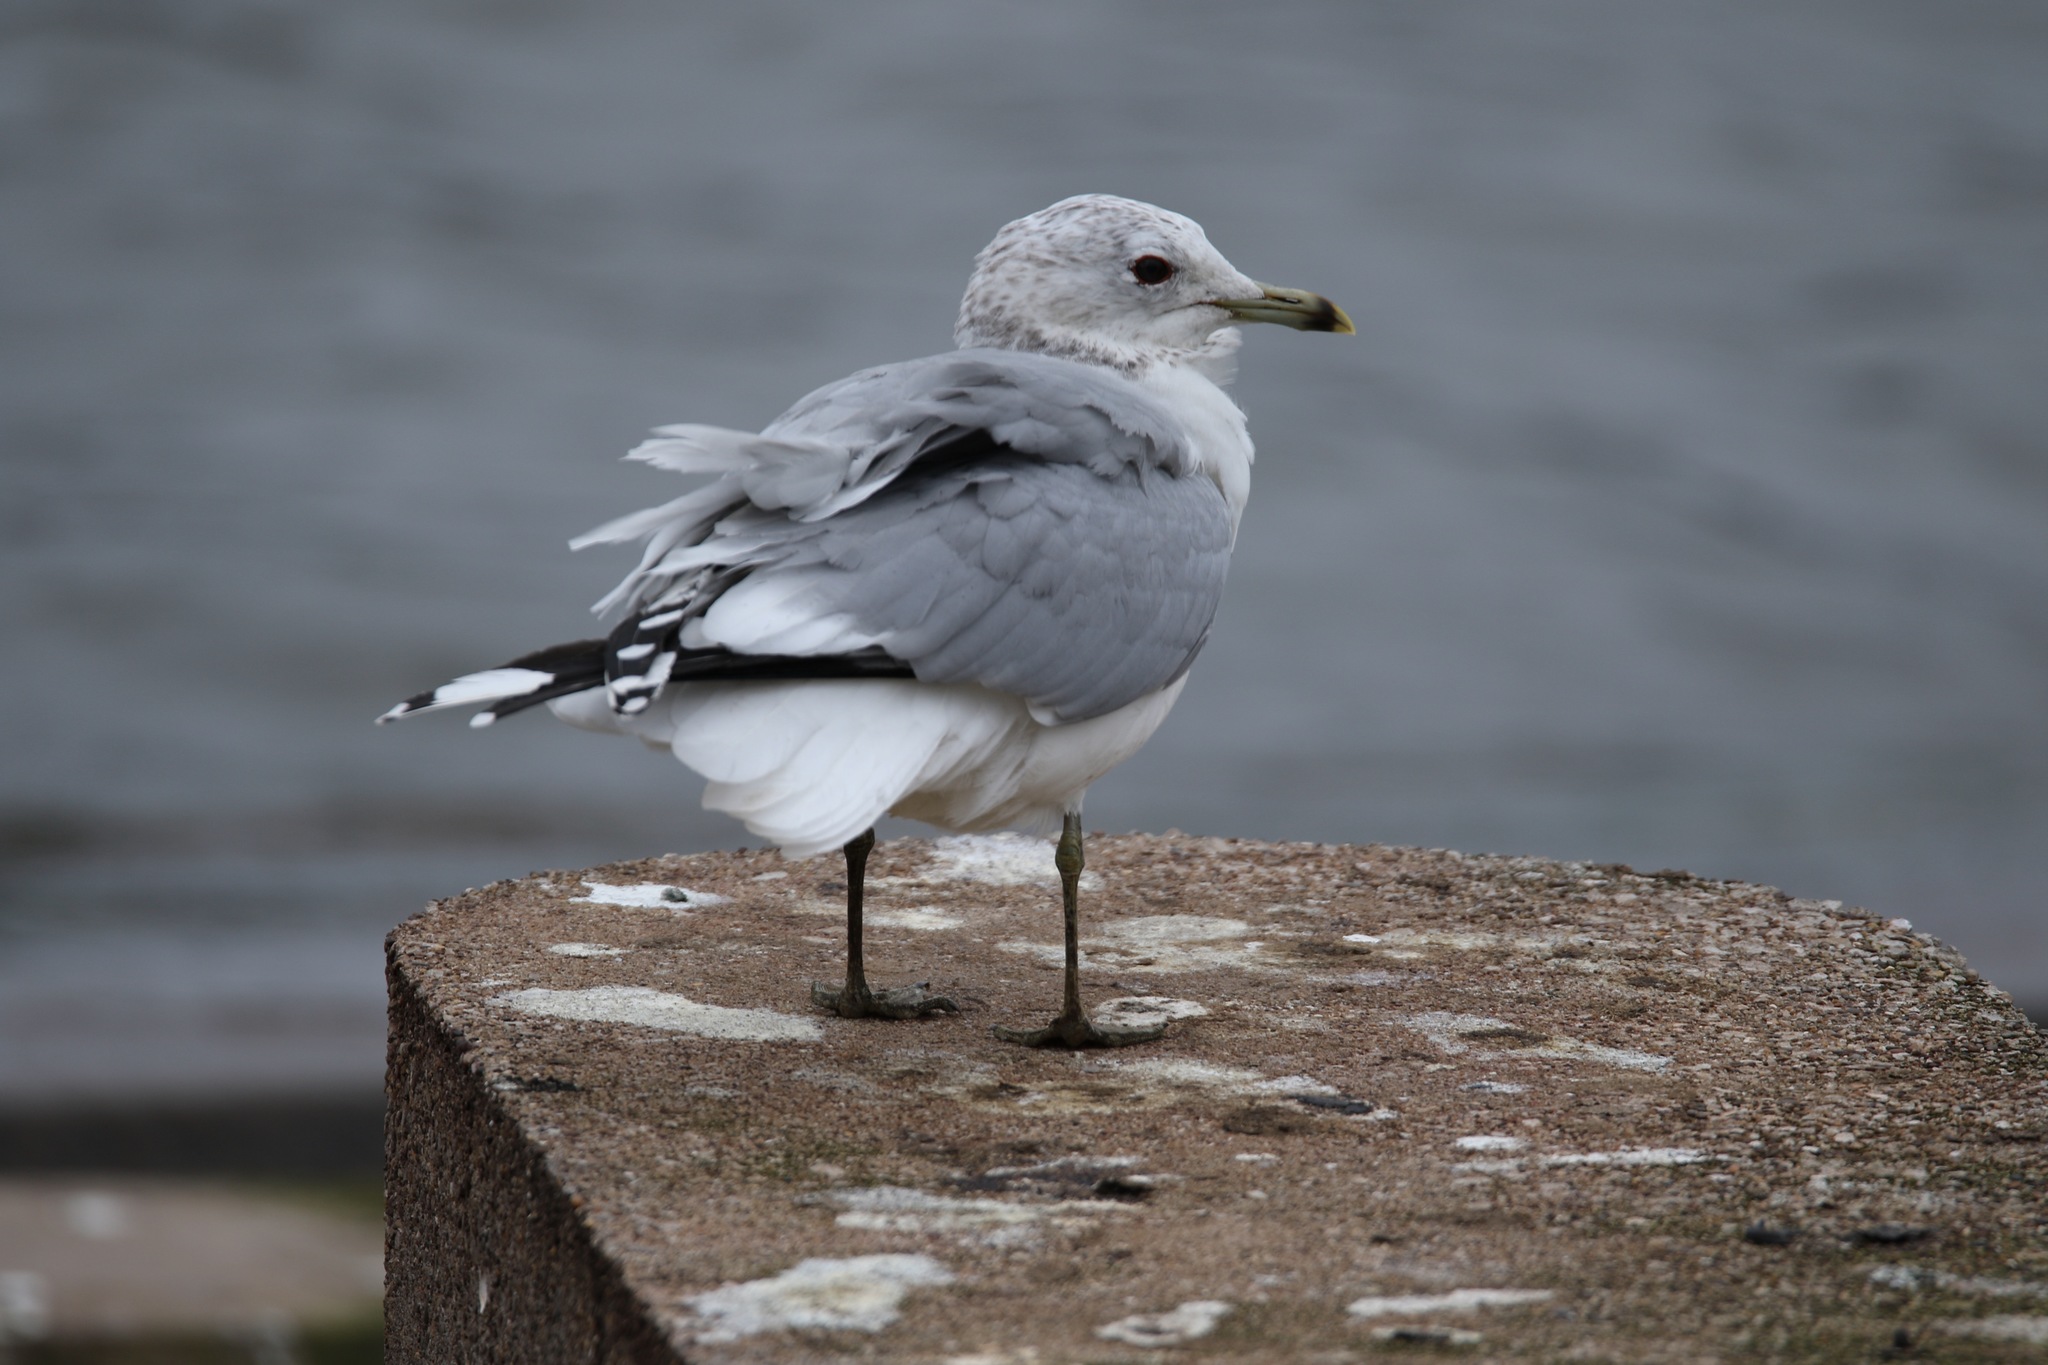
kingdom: Animalia
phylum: Chordata
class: Aves
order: Charadriiformes
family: Laridae
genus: Larus
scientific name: Larus canus
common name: Mew gull
